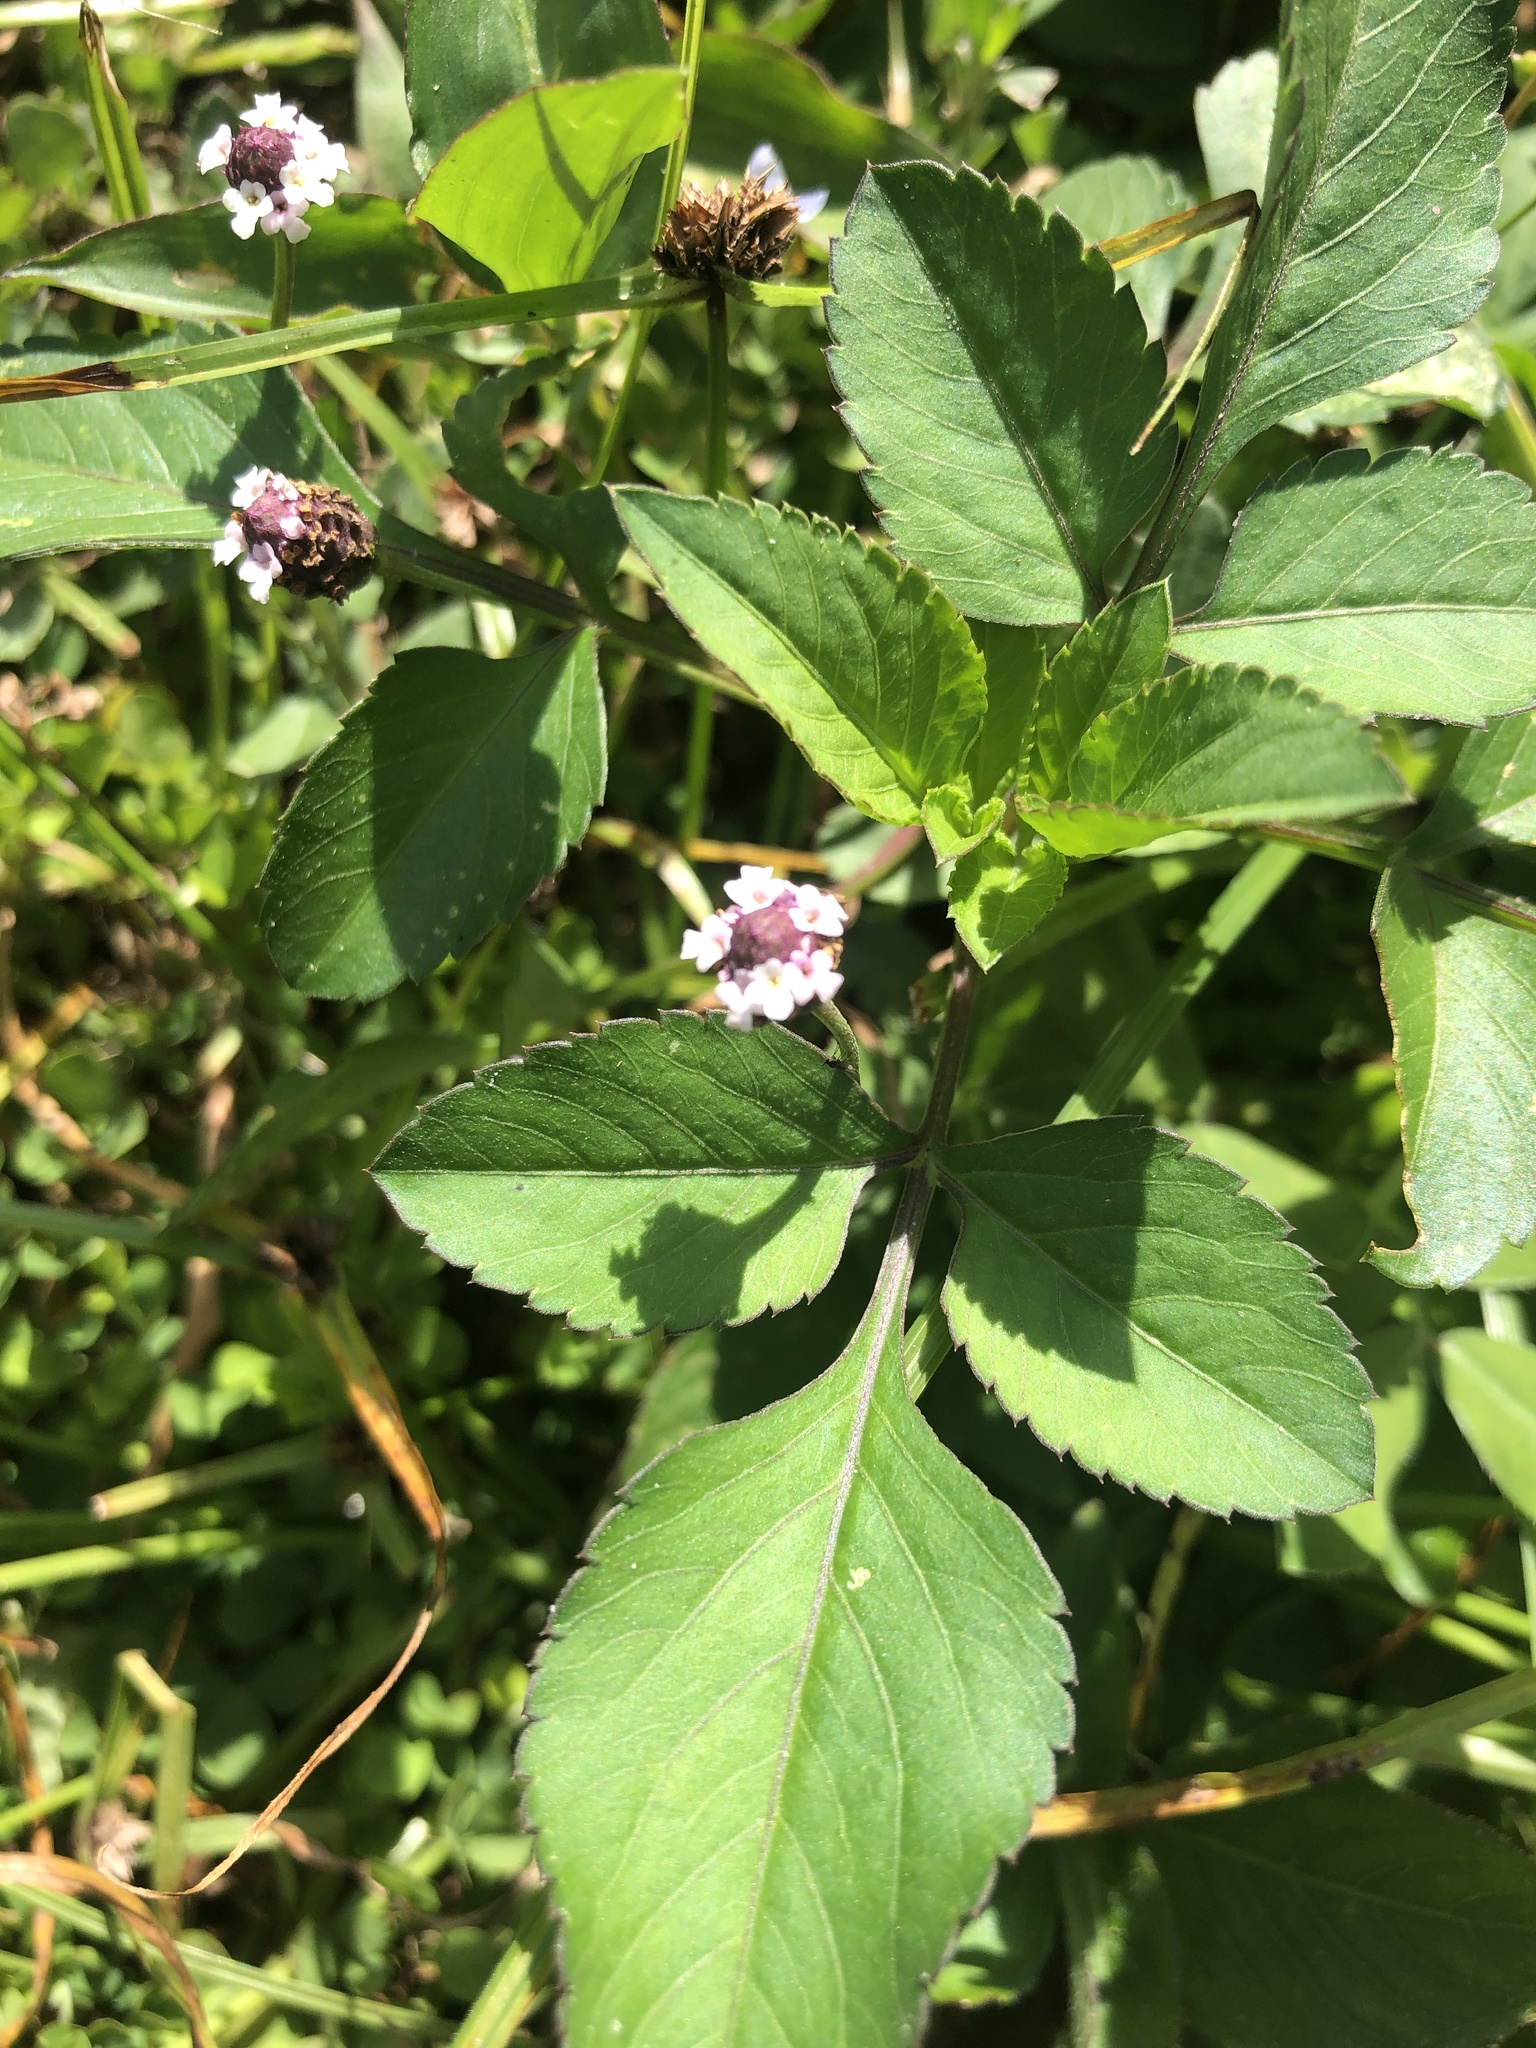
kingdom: Plantae
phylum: Tracheophyta
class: Magnoliopsida
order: Lamiales
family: Verbenaceae
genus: Phyla
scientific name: Phyla nodiflora
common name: Frogfruit
